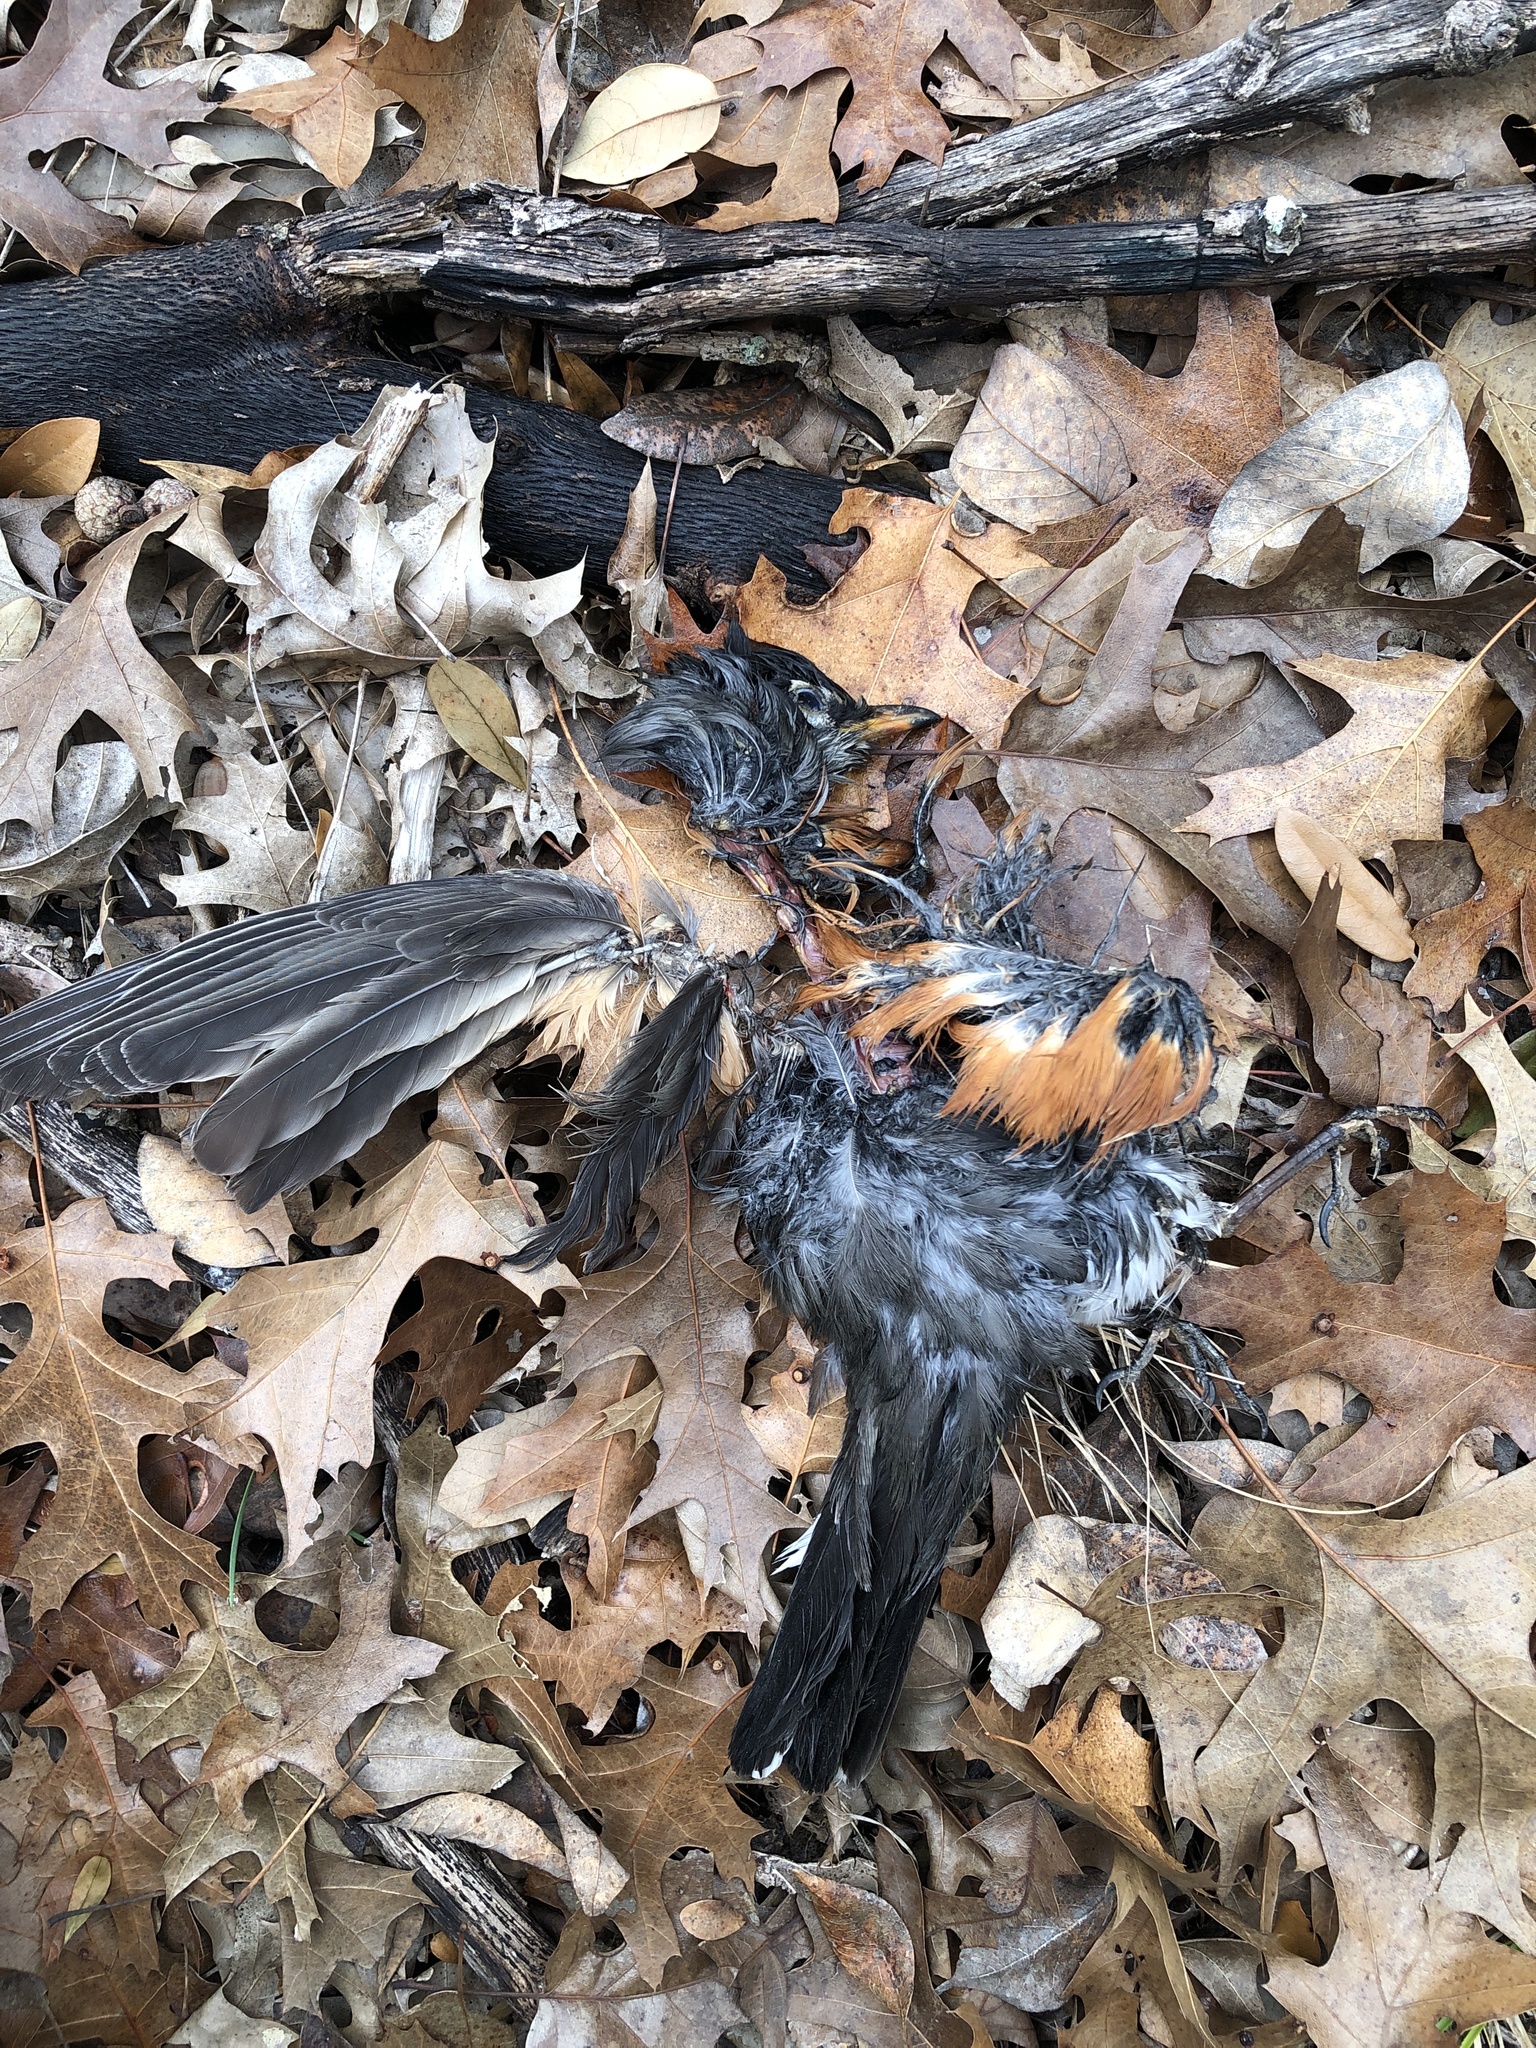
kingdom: Animalia
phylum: Chordata
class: Aves
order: Passeriformes
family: Turdidae
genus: Turdus
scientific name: Turdus migratorius
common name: American robin
